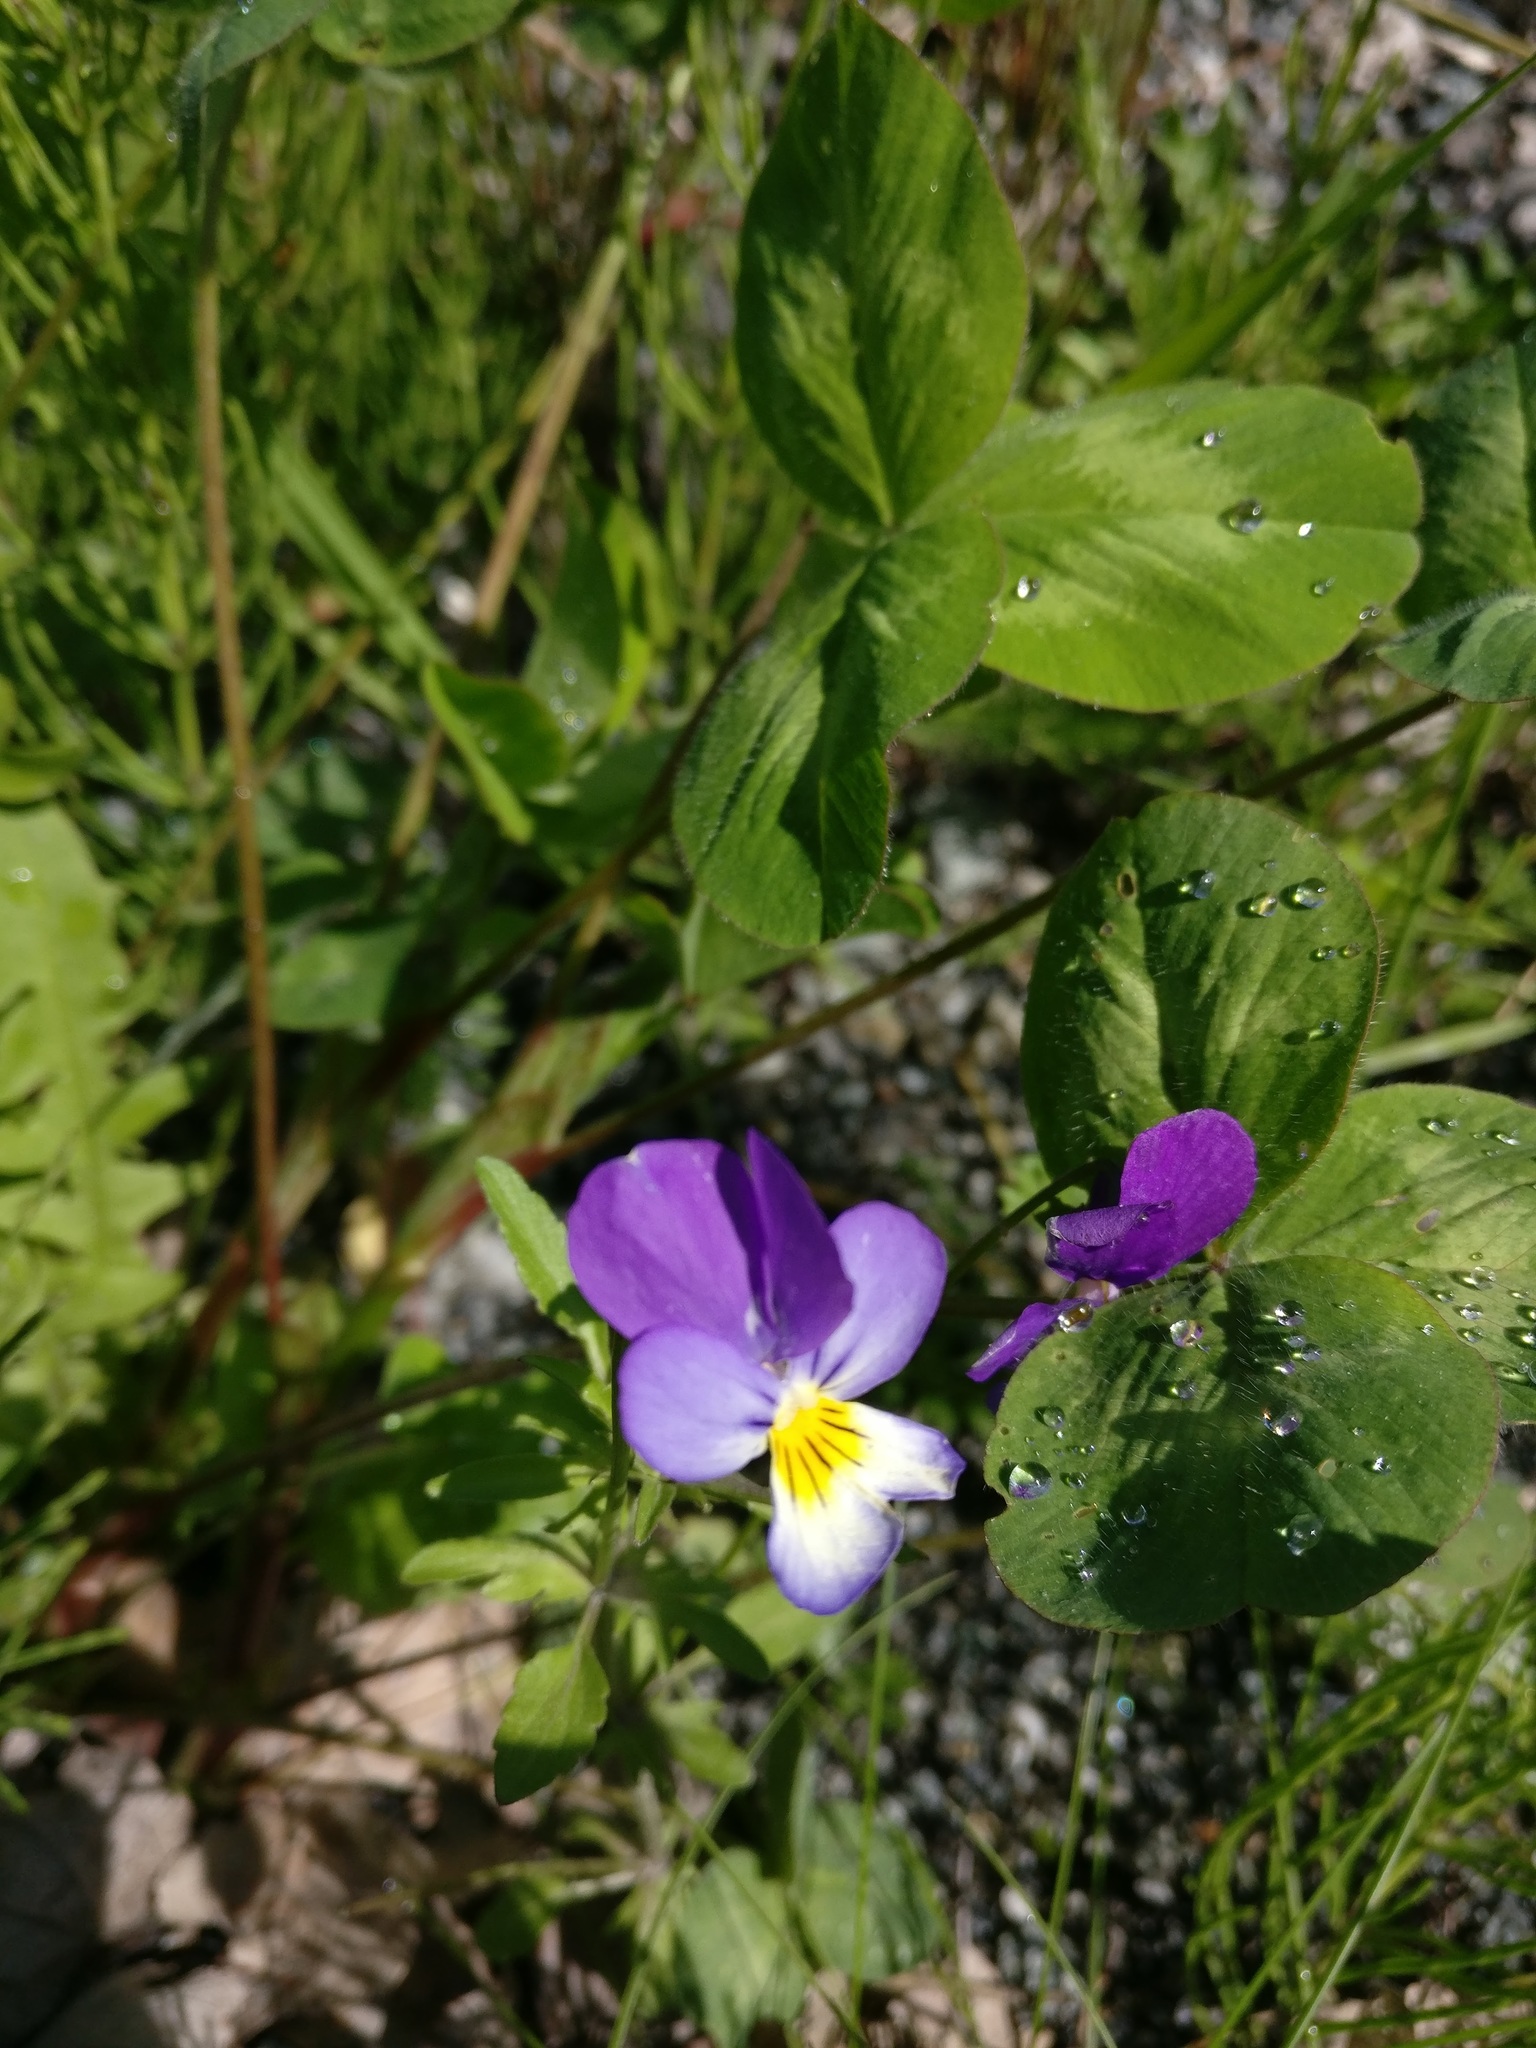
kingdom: Plantae
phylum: Tracheophyta
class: Magnoliopsida
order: Malpighiales
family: Violaceae
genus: Viola
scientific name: Viola tricolor
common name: Pansy
